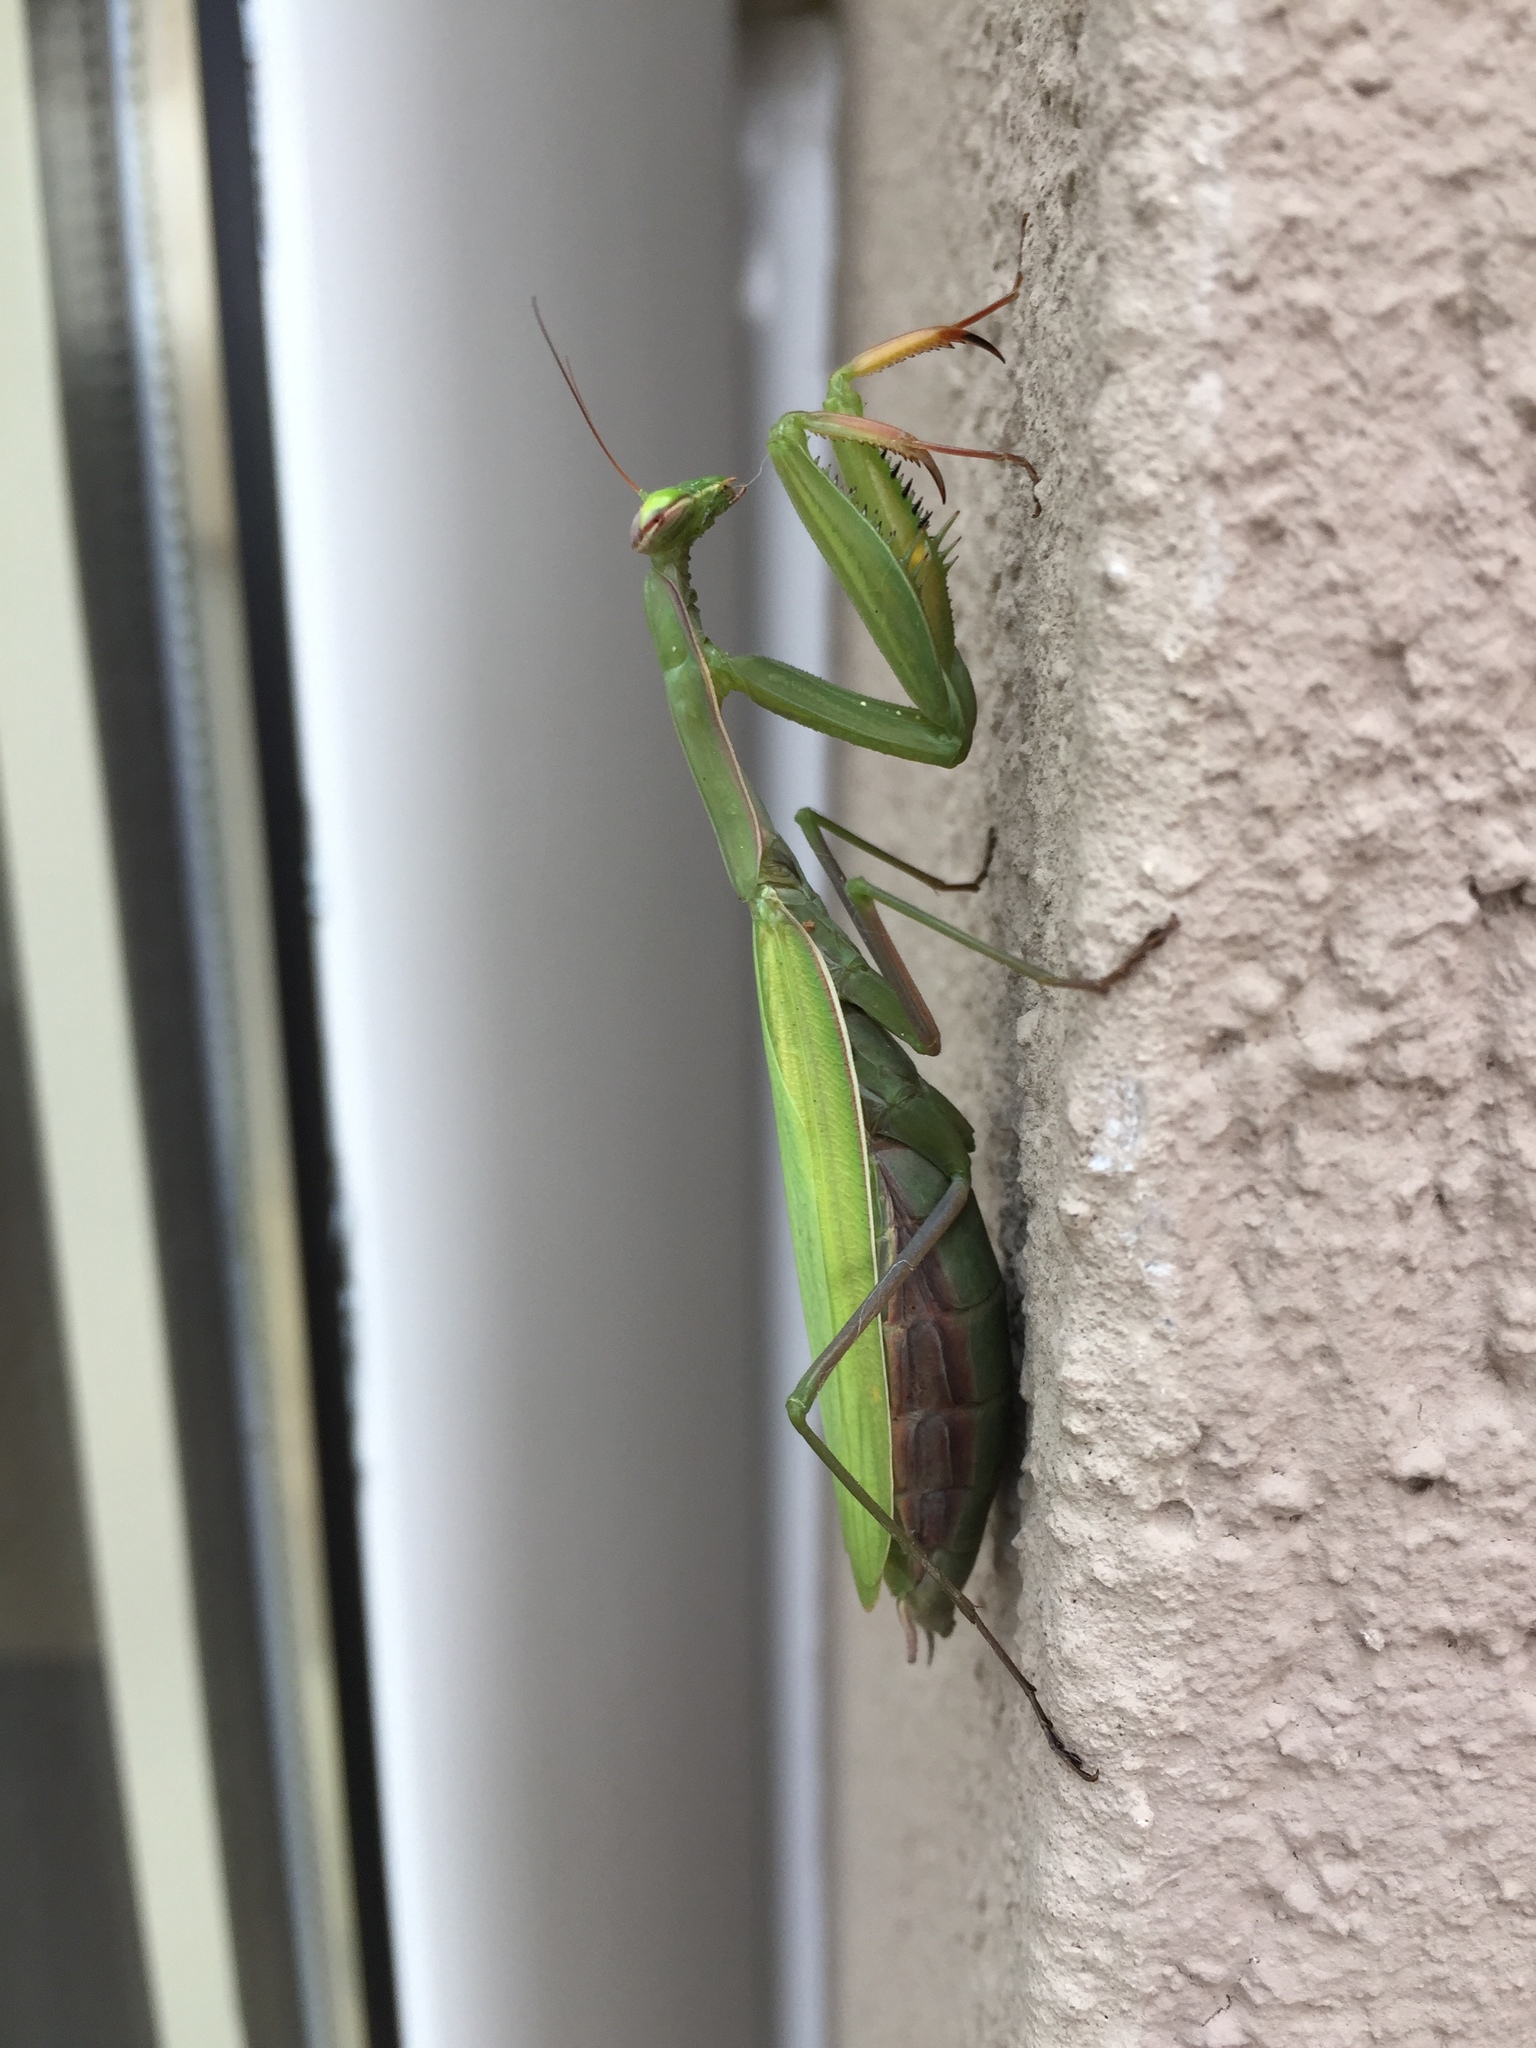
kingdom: Animalia
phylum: Arthropoda
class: Insecta
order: Mantodea
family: Mantidae
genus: Mantis
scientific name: Mantis religiosa
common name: Praying mantis
